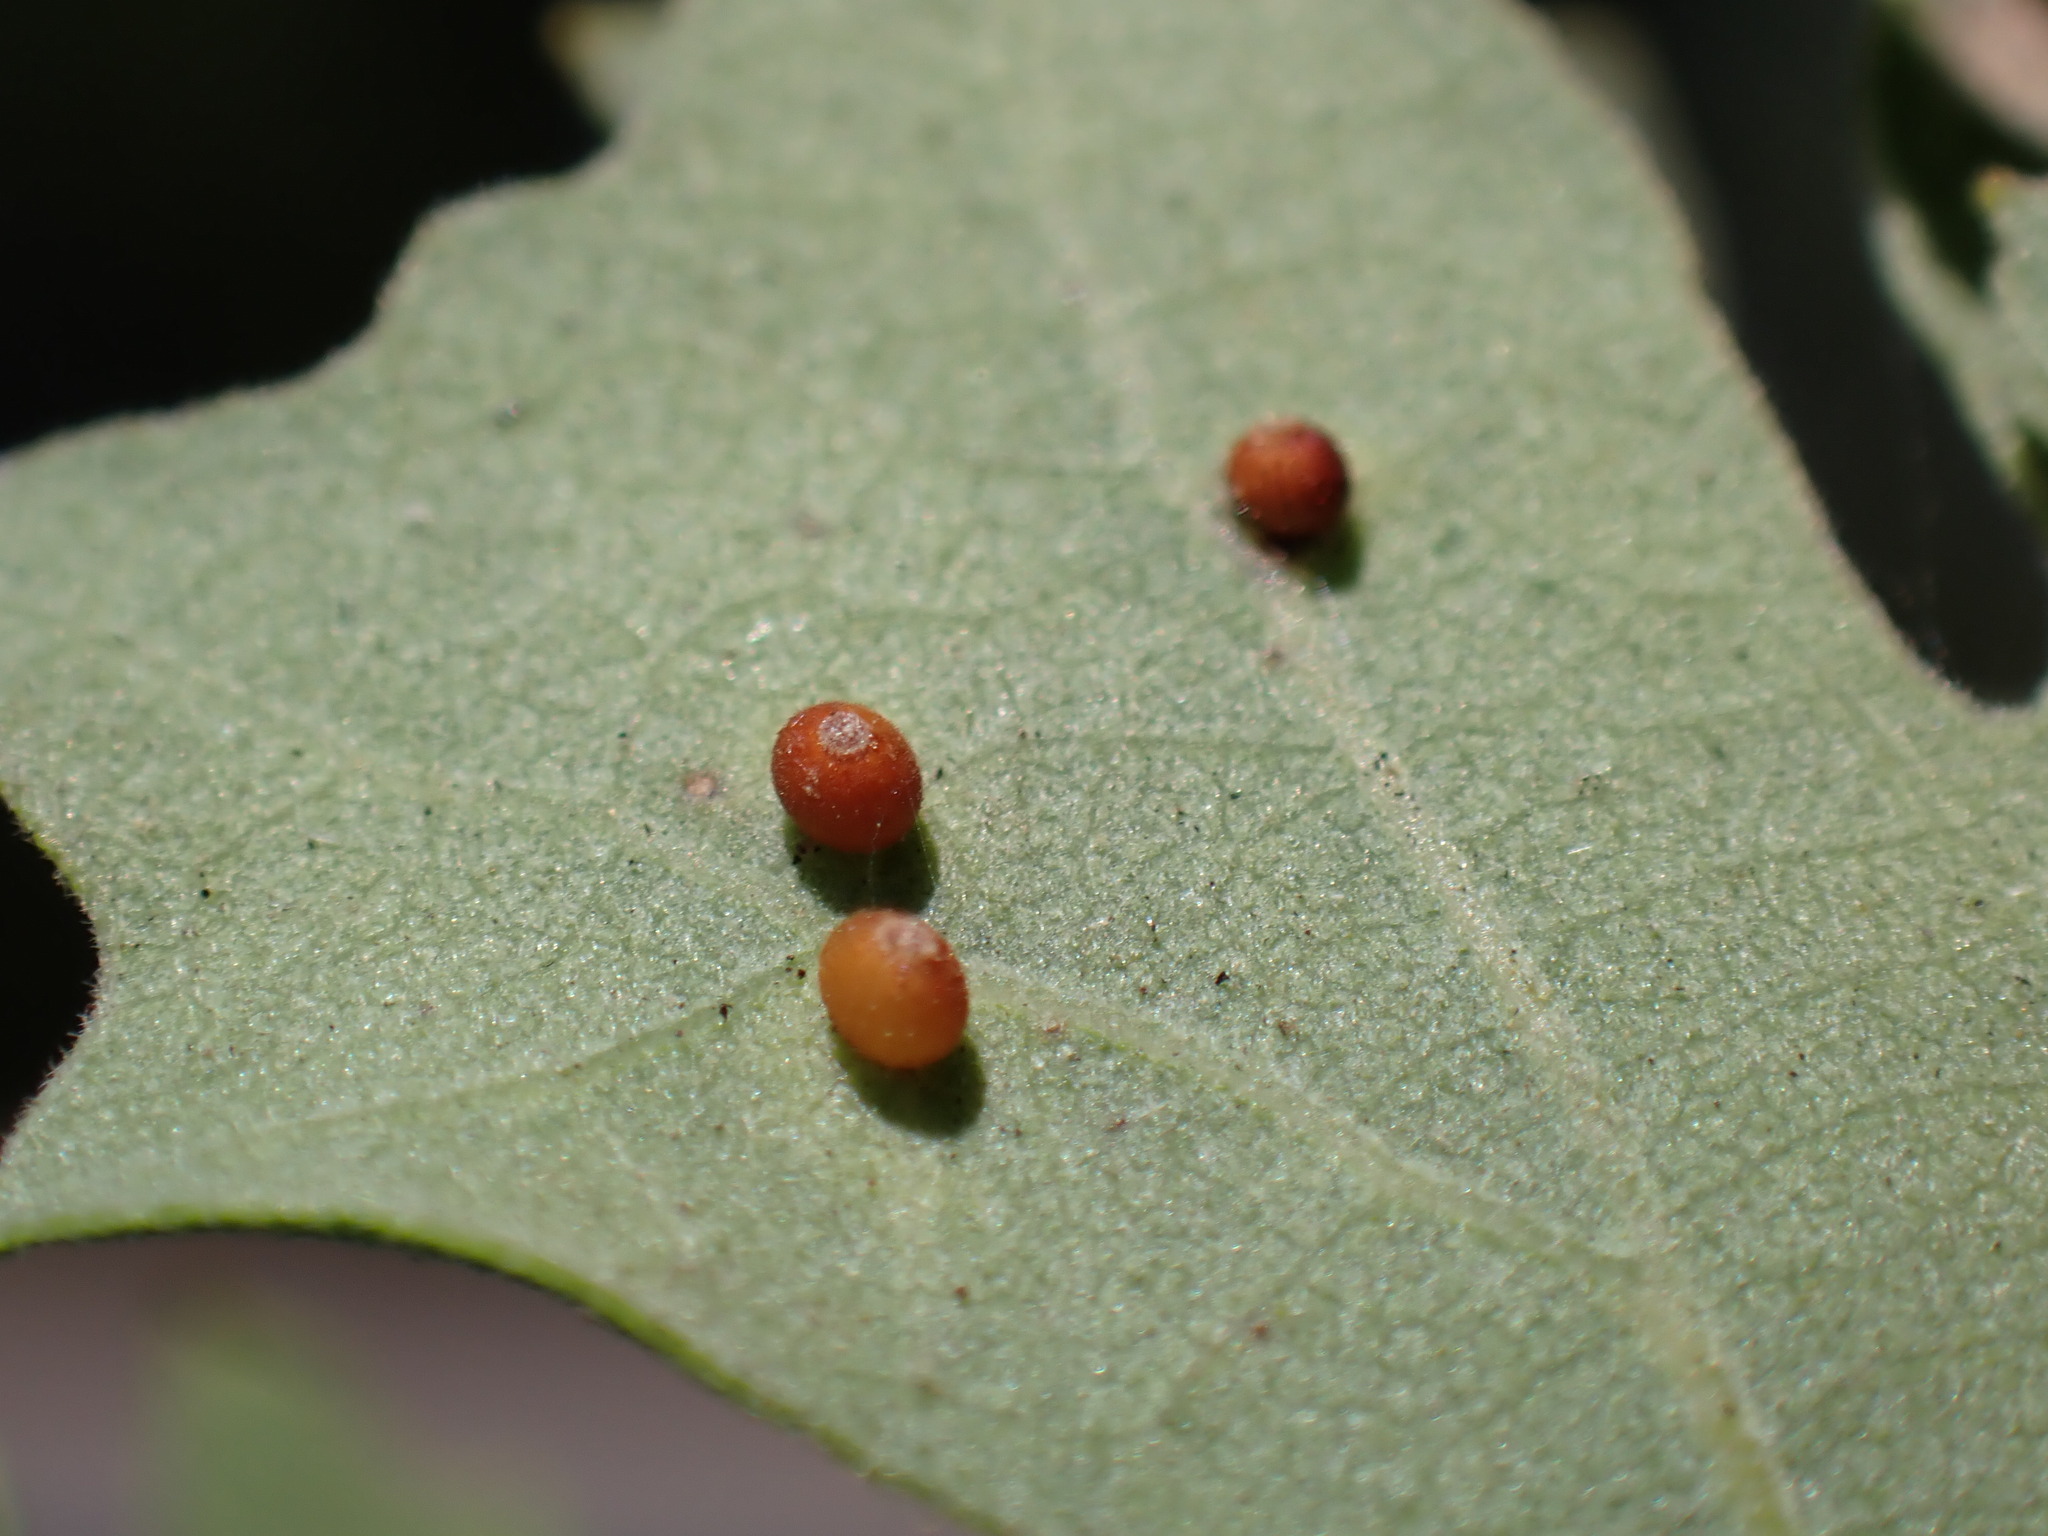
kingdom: Animalia
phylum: Arthropoda
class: Insecta
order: Hymenoptera
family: Cynipidae
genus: Neuroterus
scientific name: Neuroterus saltarius
